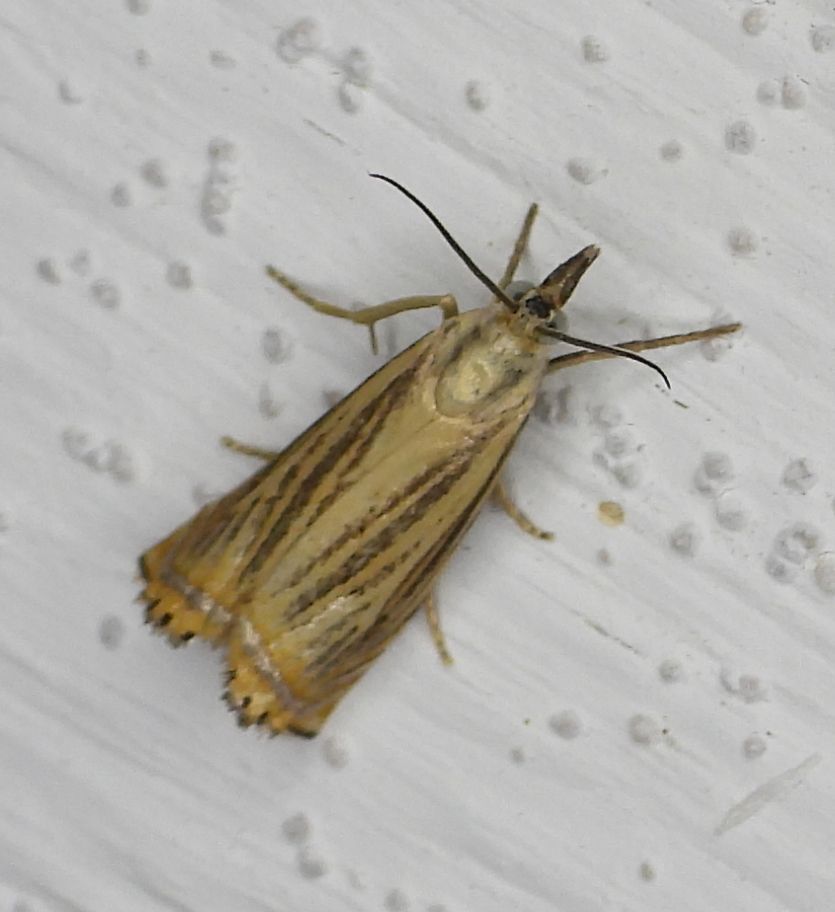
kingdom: Animalia
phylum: Arthropoda
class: Insecta
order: Lepidoptera
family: Crambidae
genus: Chrysoteuchia
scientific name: Chrysoteuchia topiarius
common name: Topiary grass-veneer
